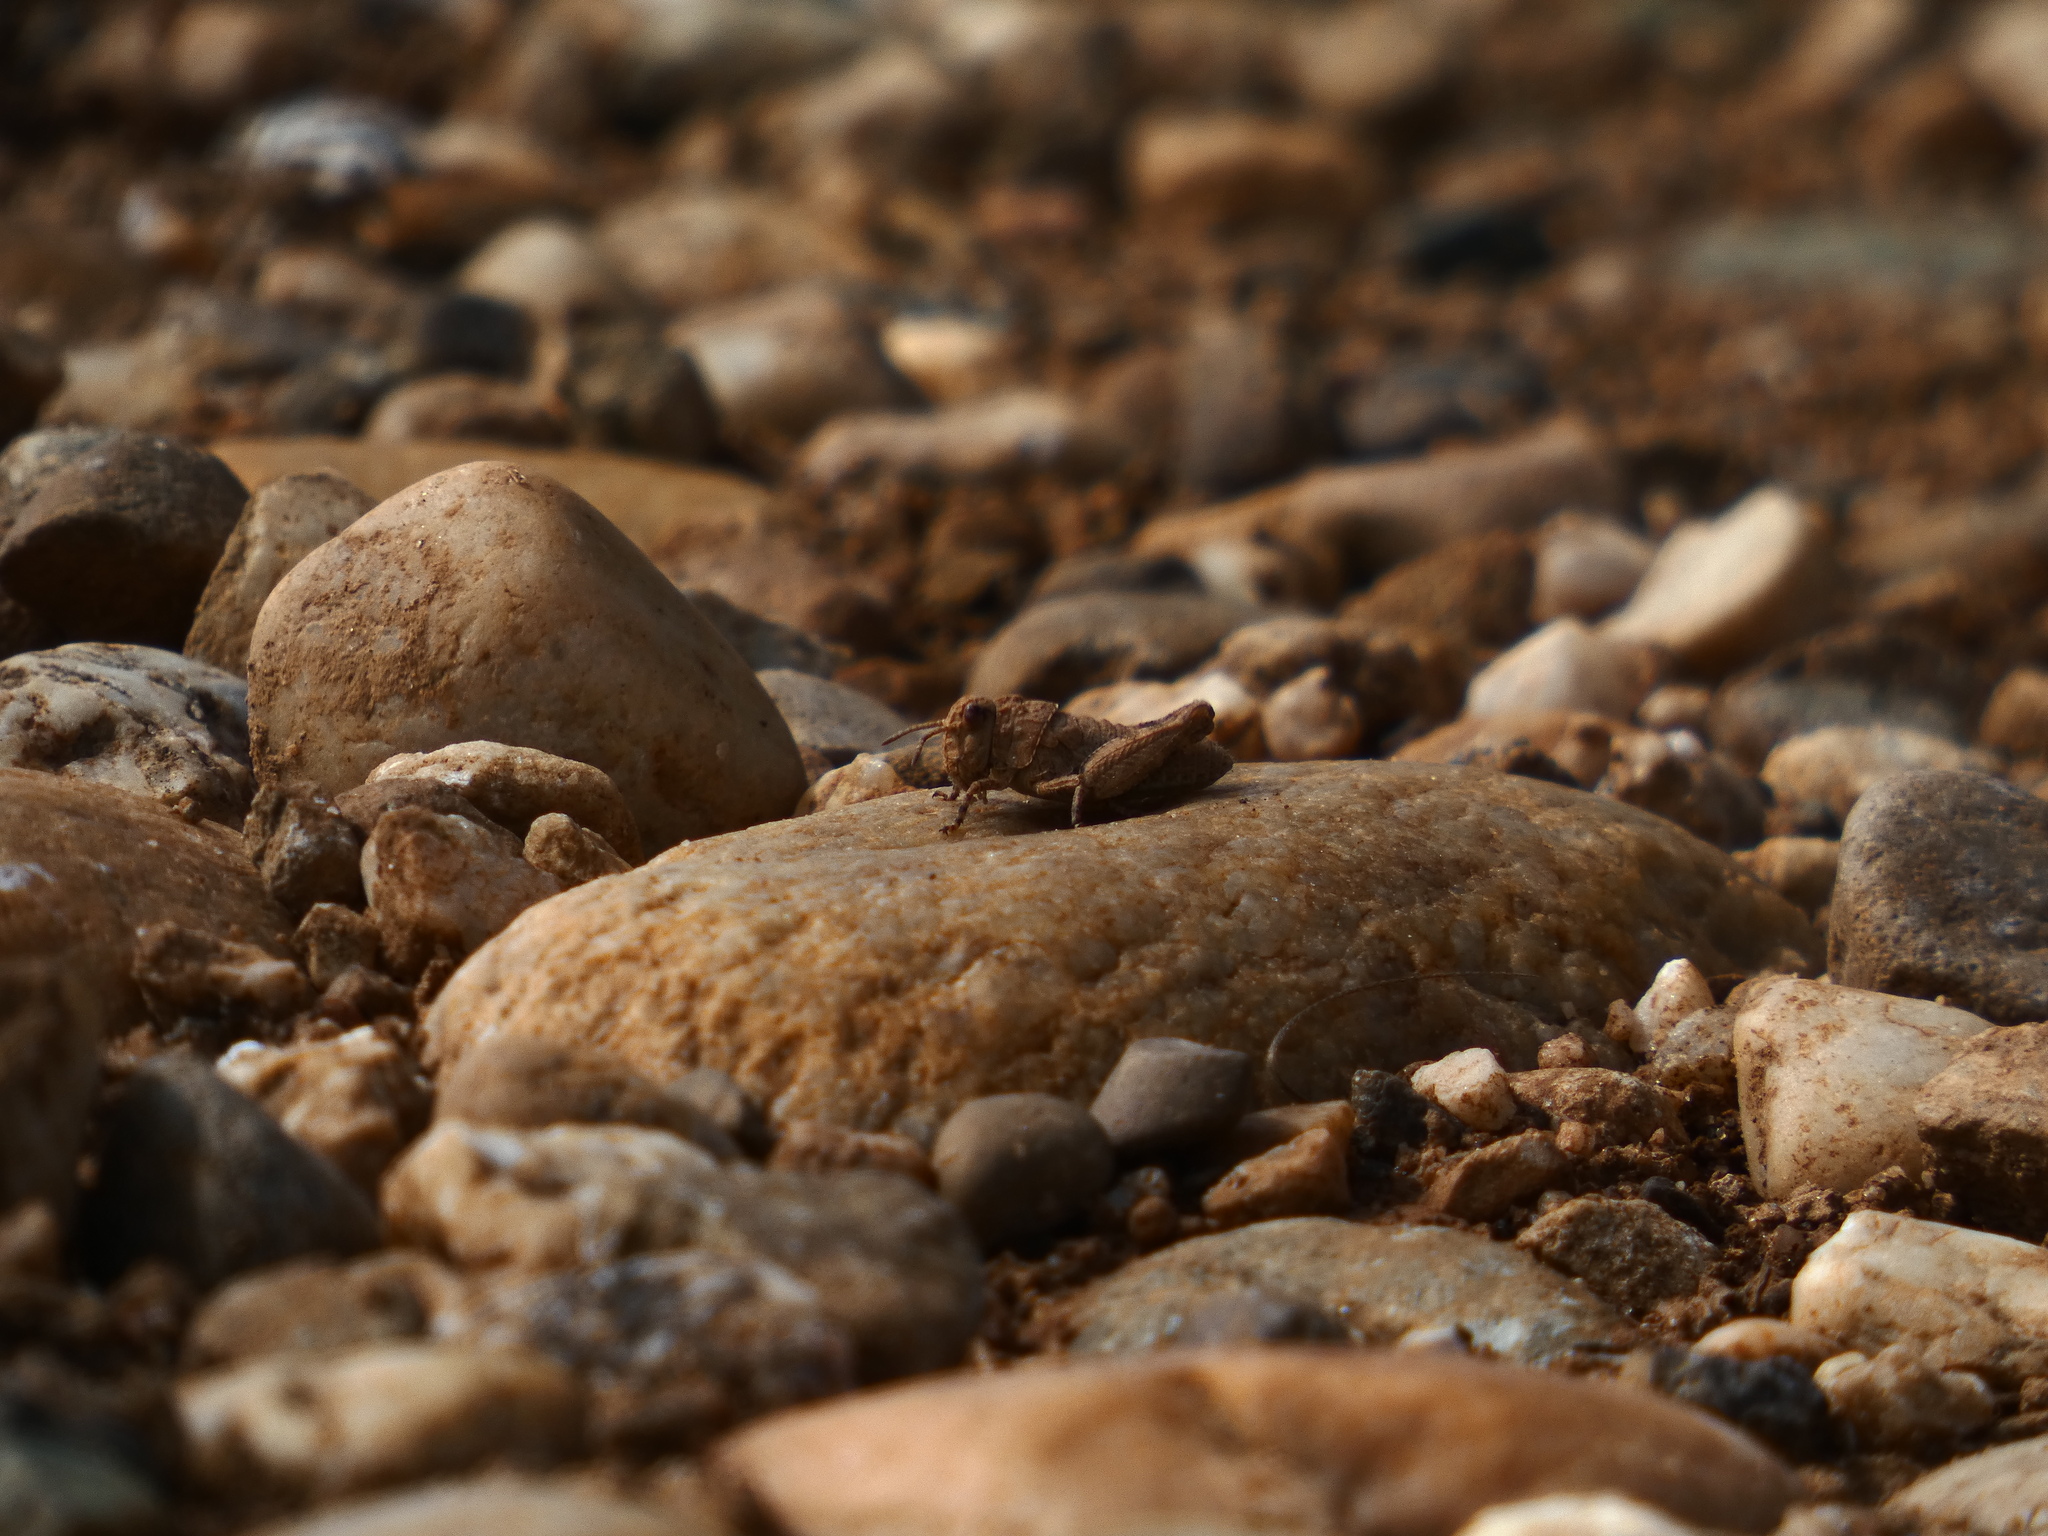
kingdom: Animalia
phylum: Arthropoda
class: Insecta
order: Orthoptera
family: Acrididae
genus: Oedipoda
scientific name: Oedipoda charpentieri
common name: Western band-winged grasshopper
